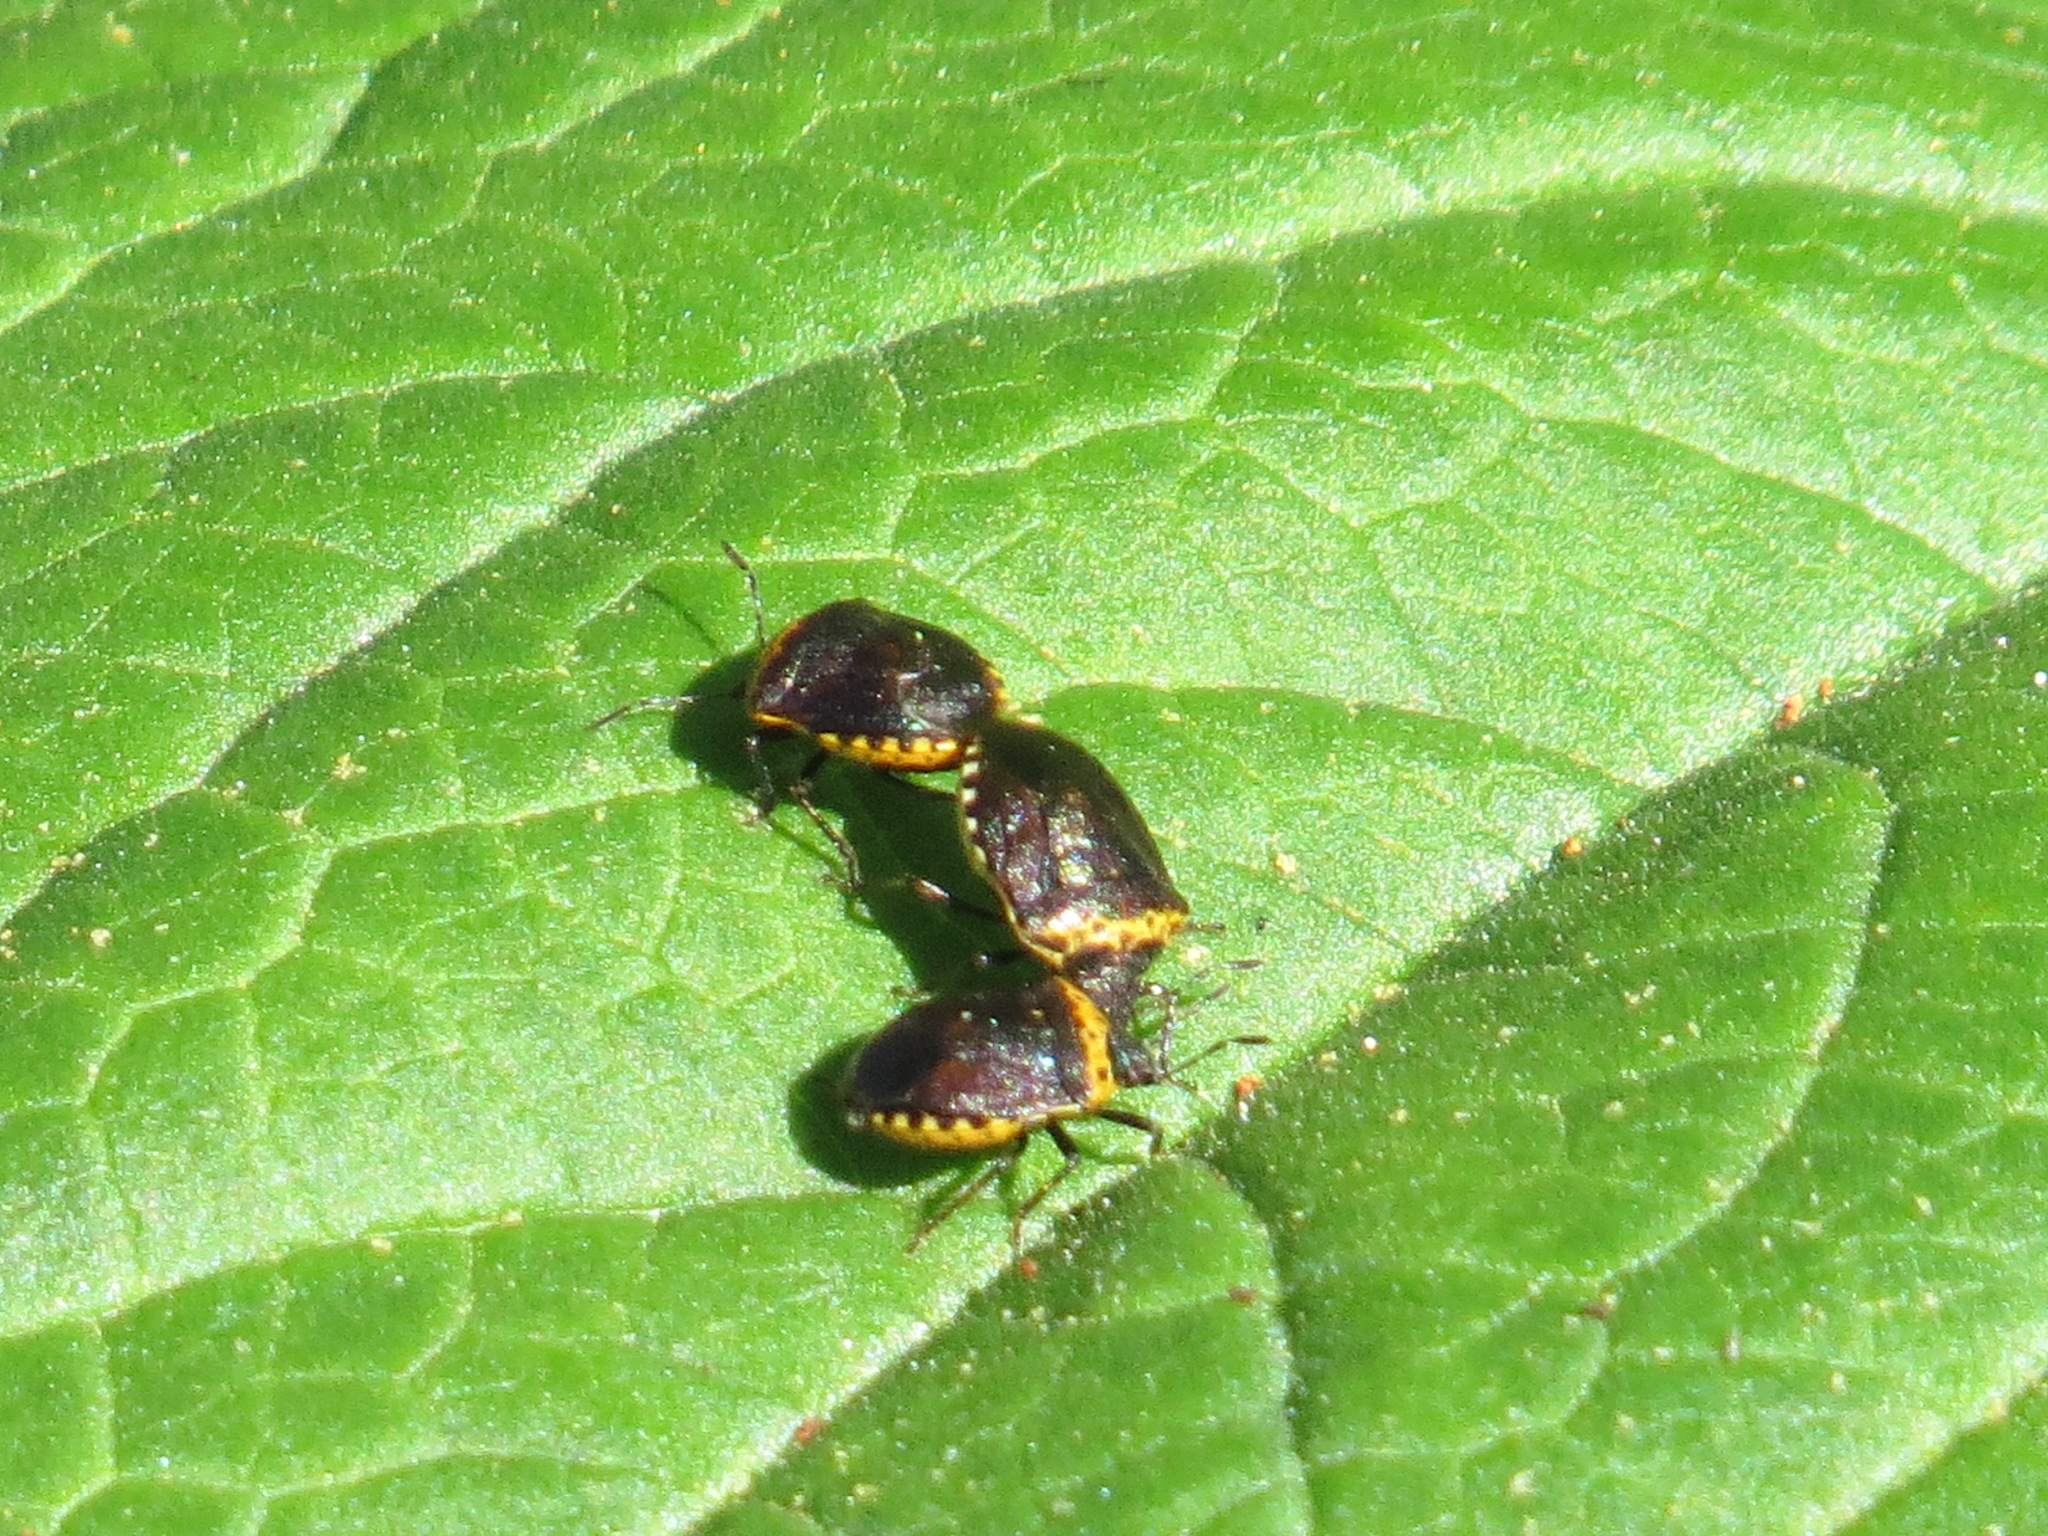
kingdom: Animalia
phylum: Arthropoda
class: Insecta
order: Hemiptera
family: Pentatomidae
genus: Cosmopepla
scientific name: Cosmopepla uhleri
